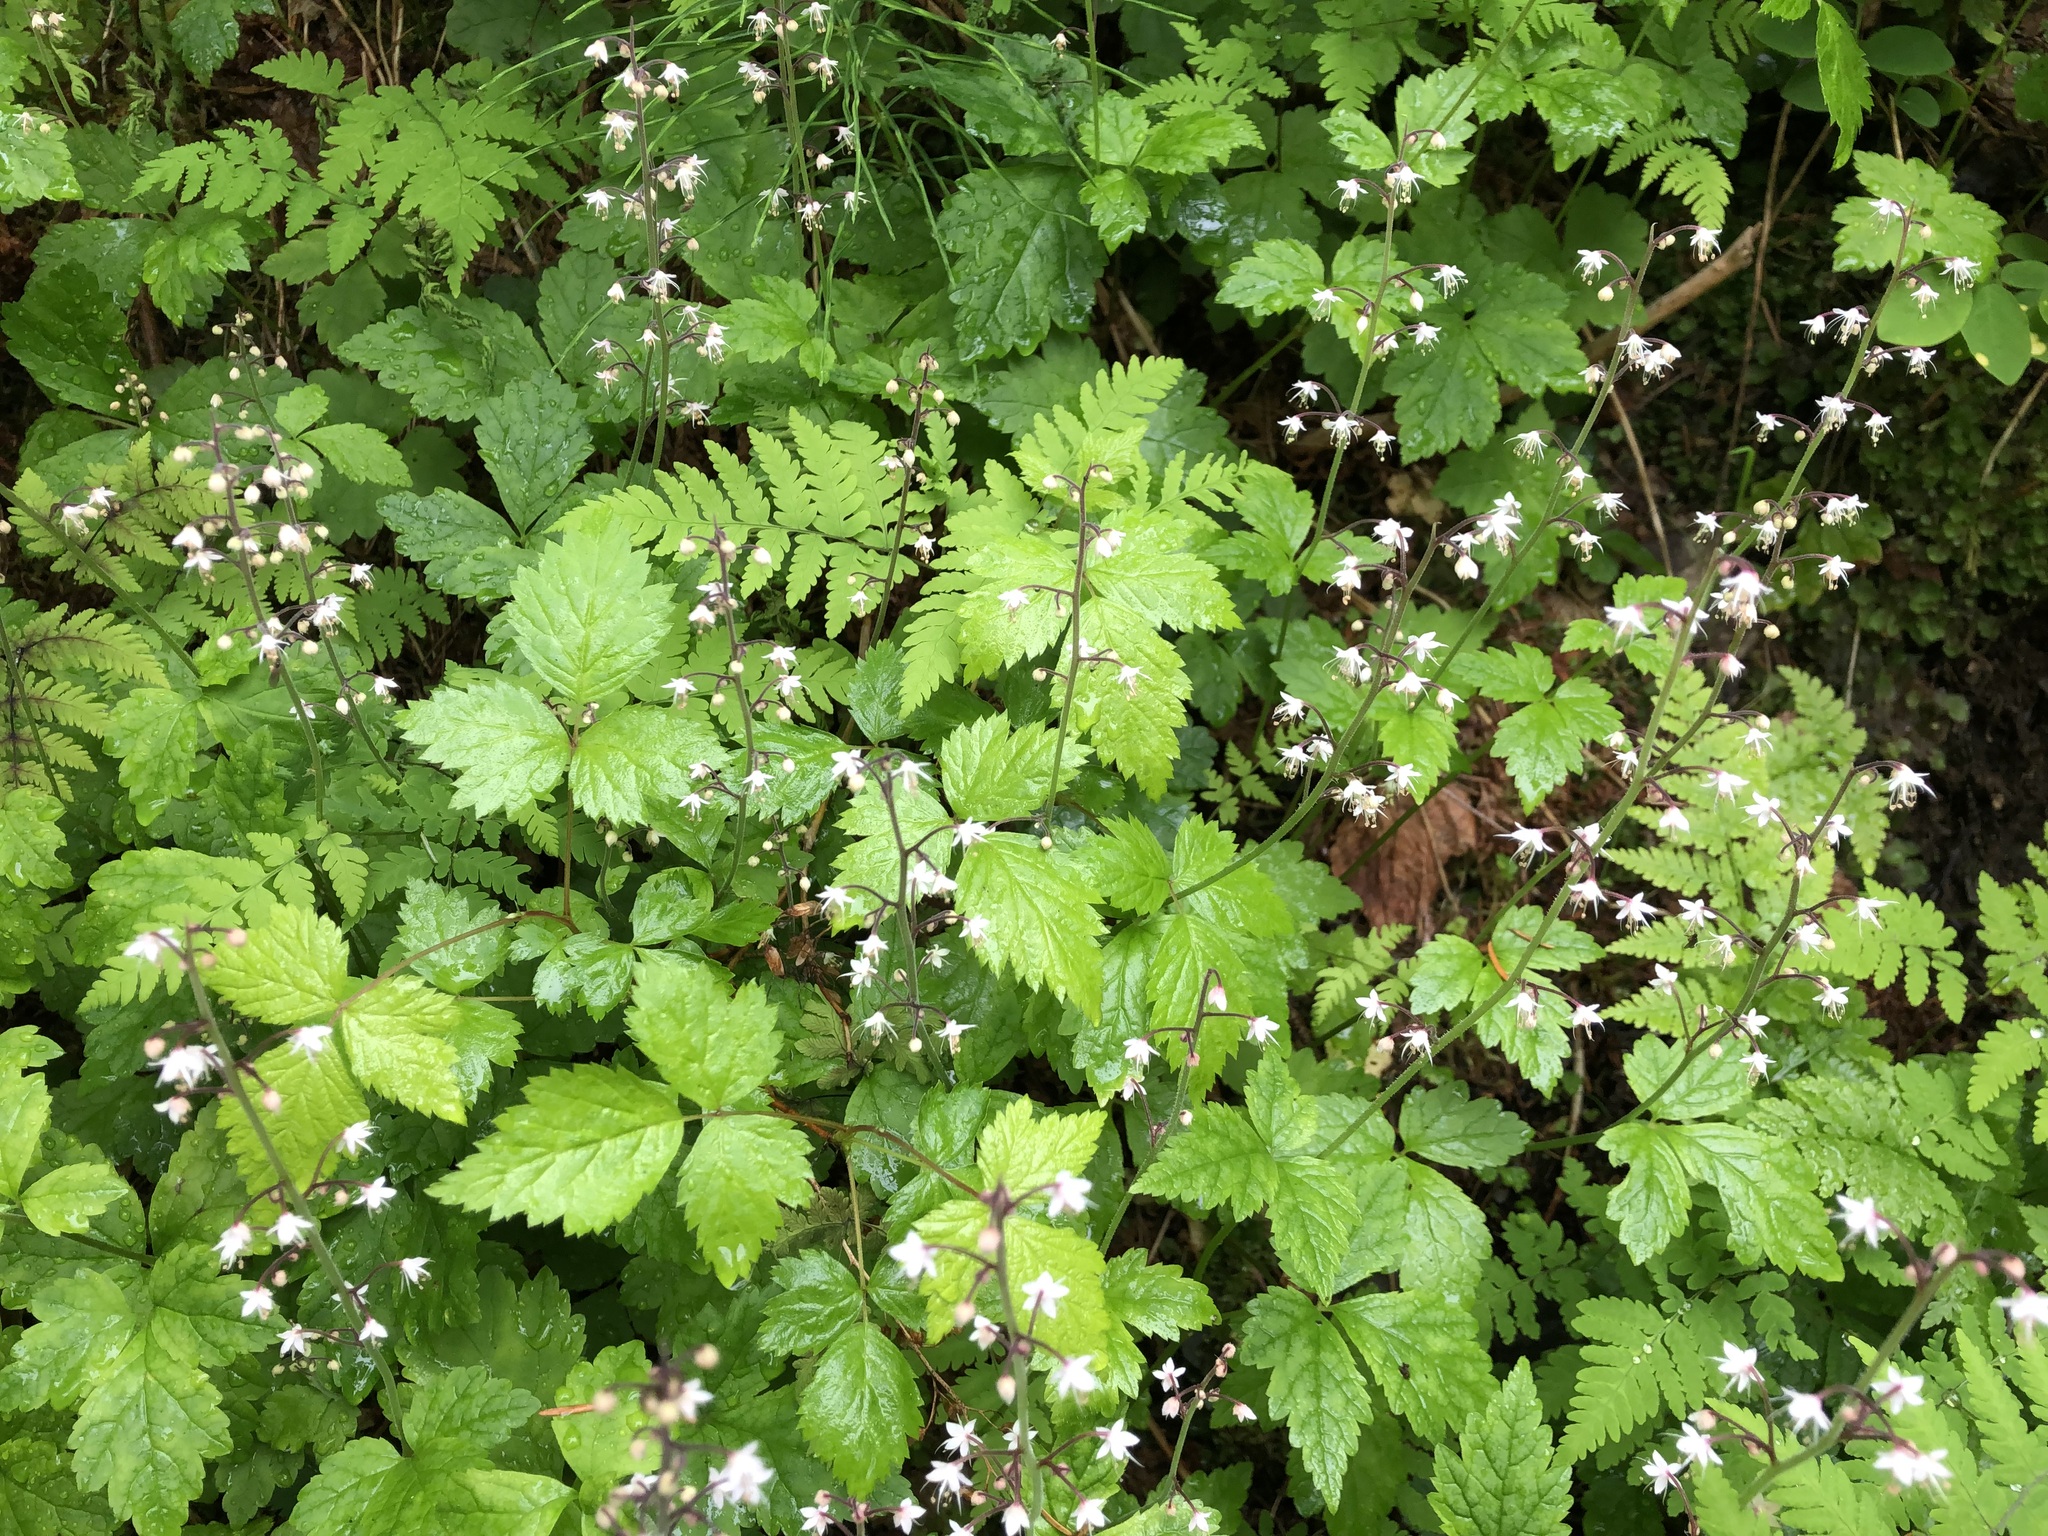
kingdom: Plantae
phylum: Tracheophyta
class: Magnoliopsida
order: Saxifragales
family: Saxifragaceae
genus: Tiarella
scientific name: Tiarella trifoliata
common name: Sugar-scoop
